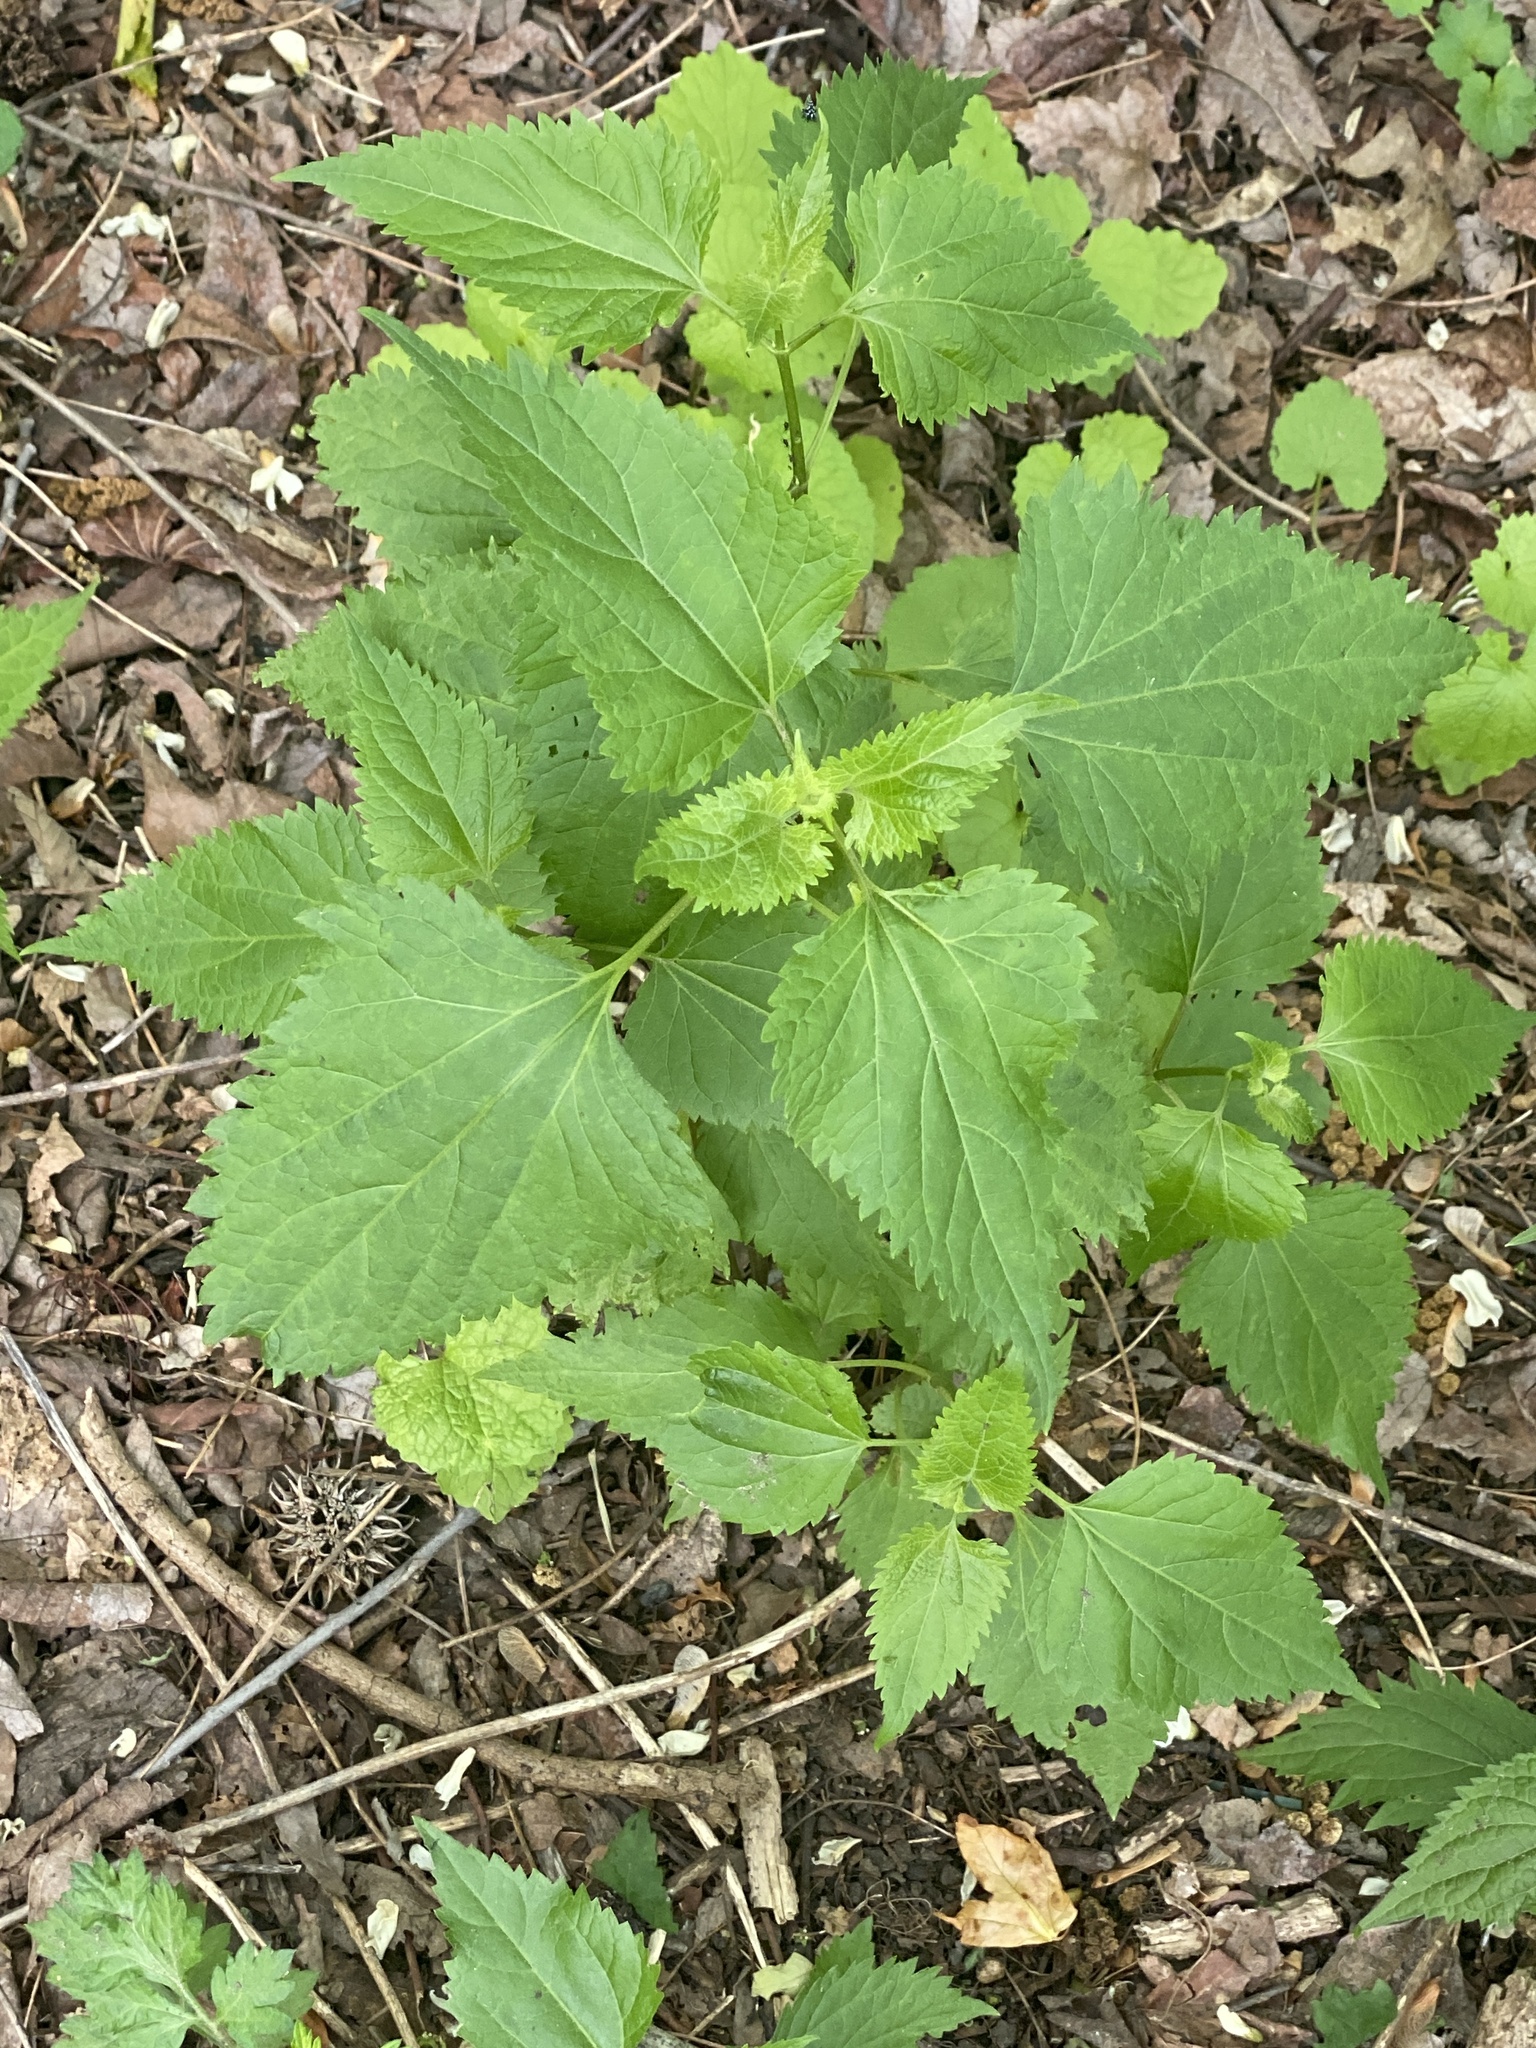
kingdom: Plantae
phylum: Tracheophyta
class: Magnoliopsida
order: Asterales
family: Asteraceae
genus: Ageratina
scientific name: Ageratina altissima
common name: White snakeroot
